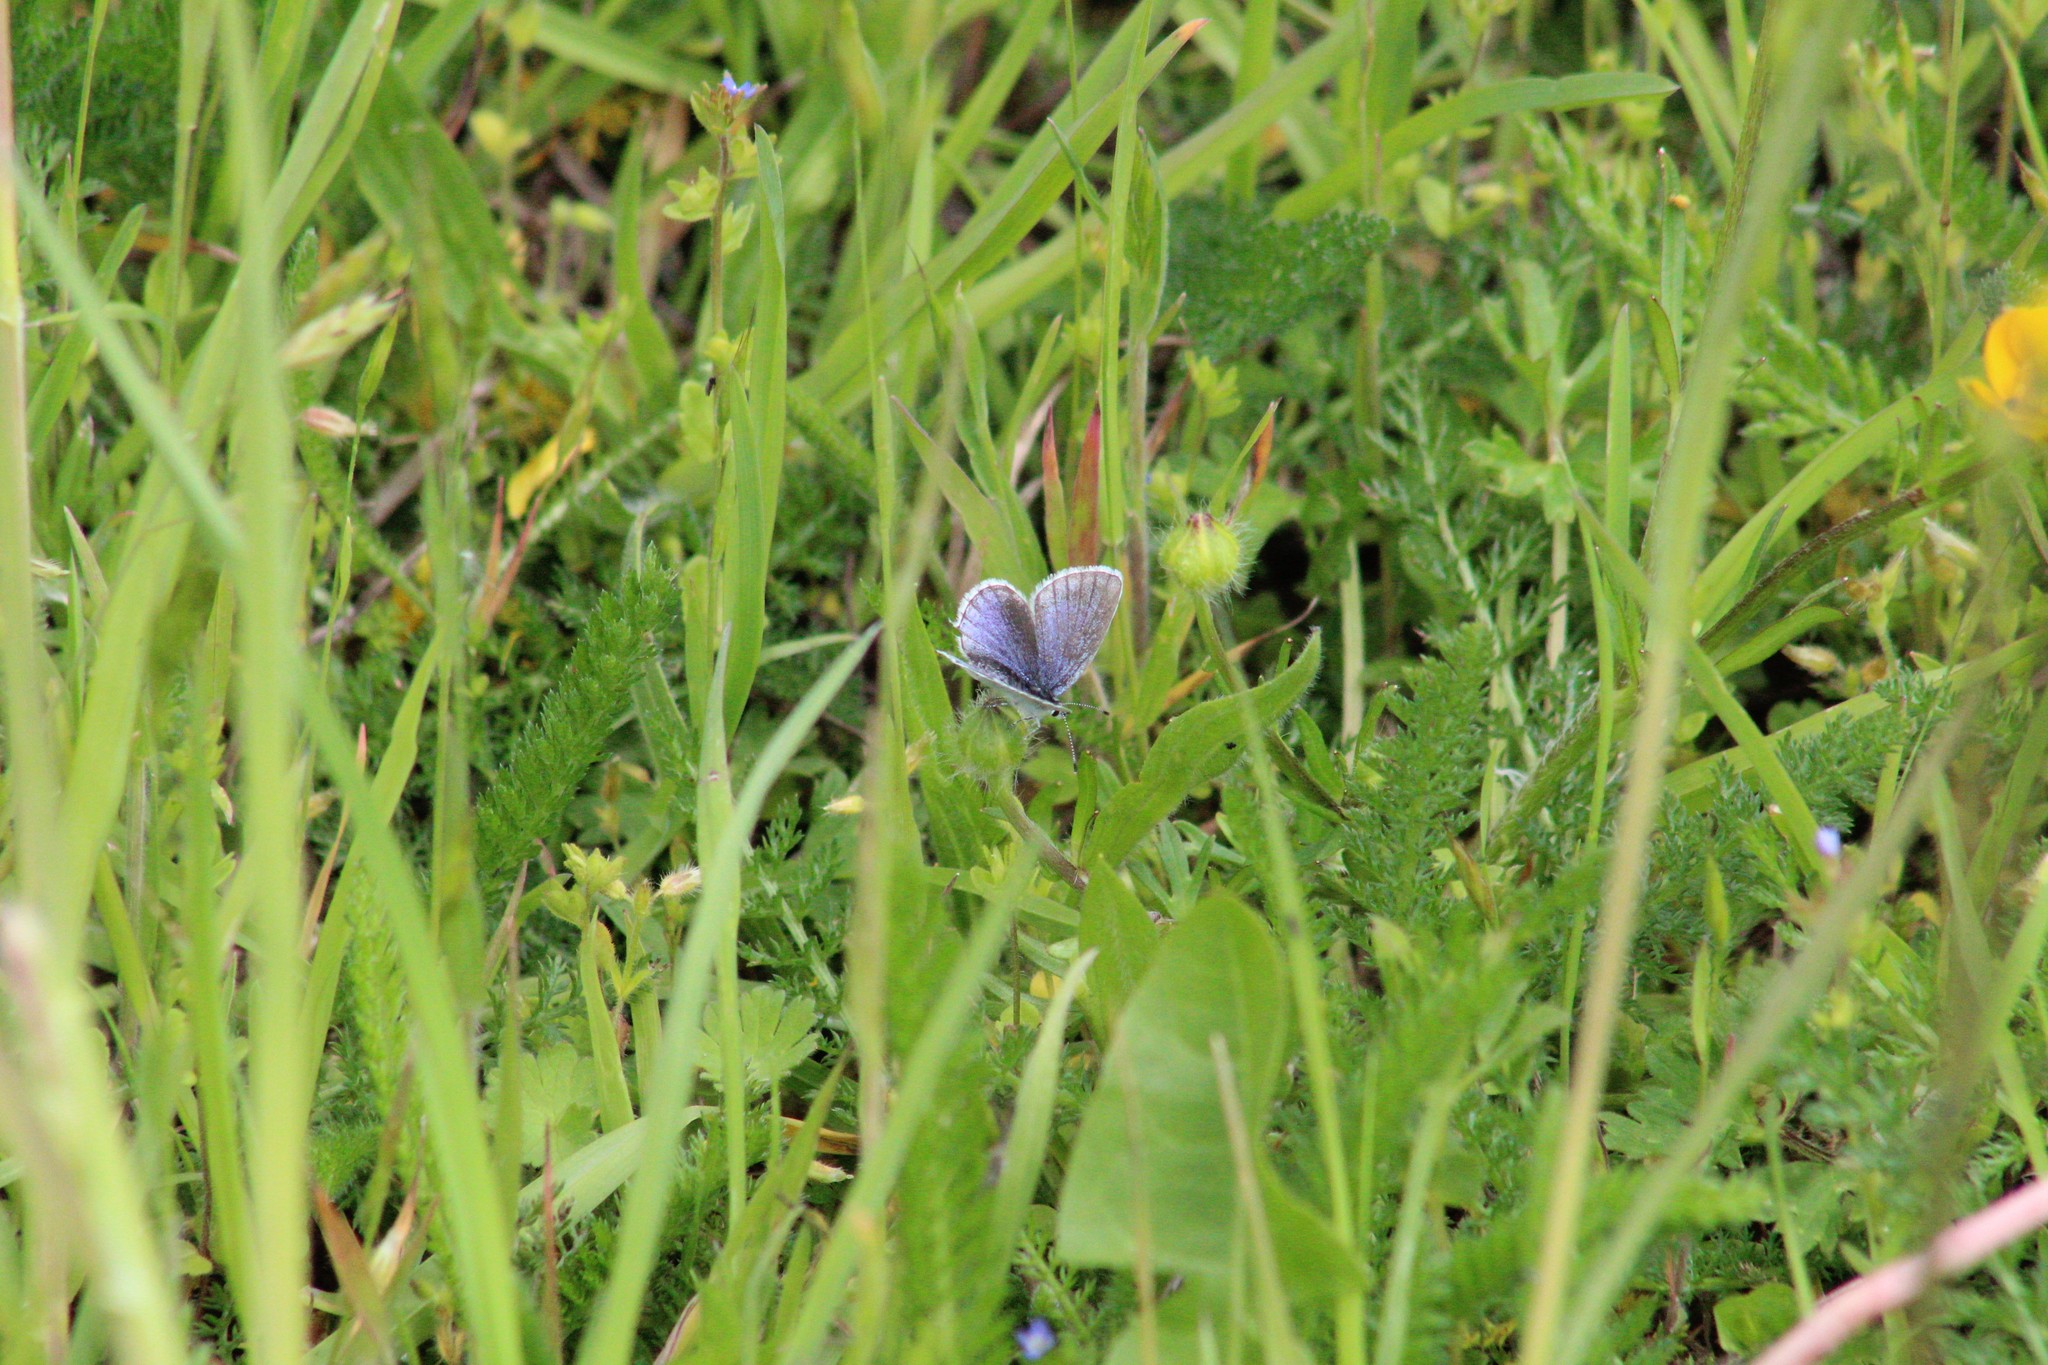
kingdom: Animalia
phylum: Arthropoda
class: Insecta
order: Lepidoptera
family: Lycaenidae
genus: Elkalyce
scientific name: Elkalyce argiades
